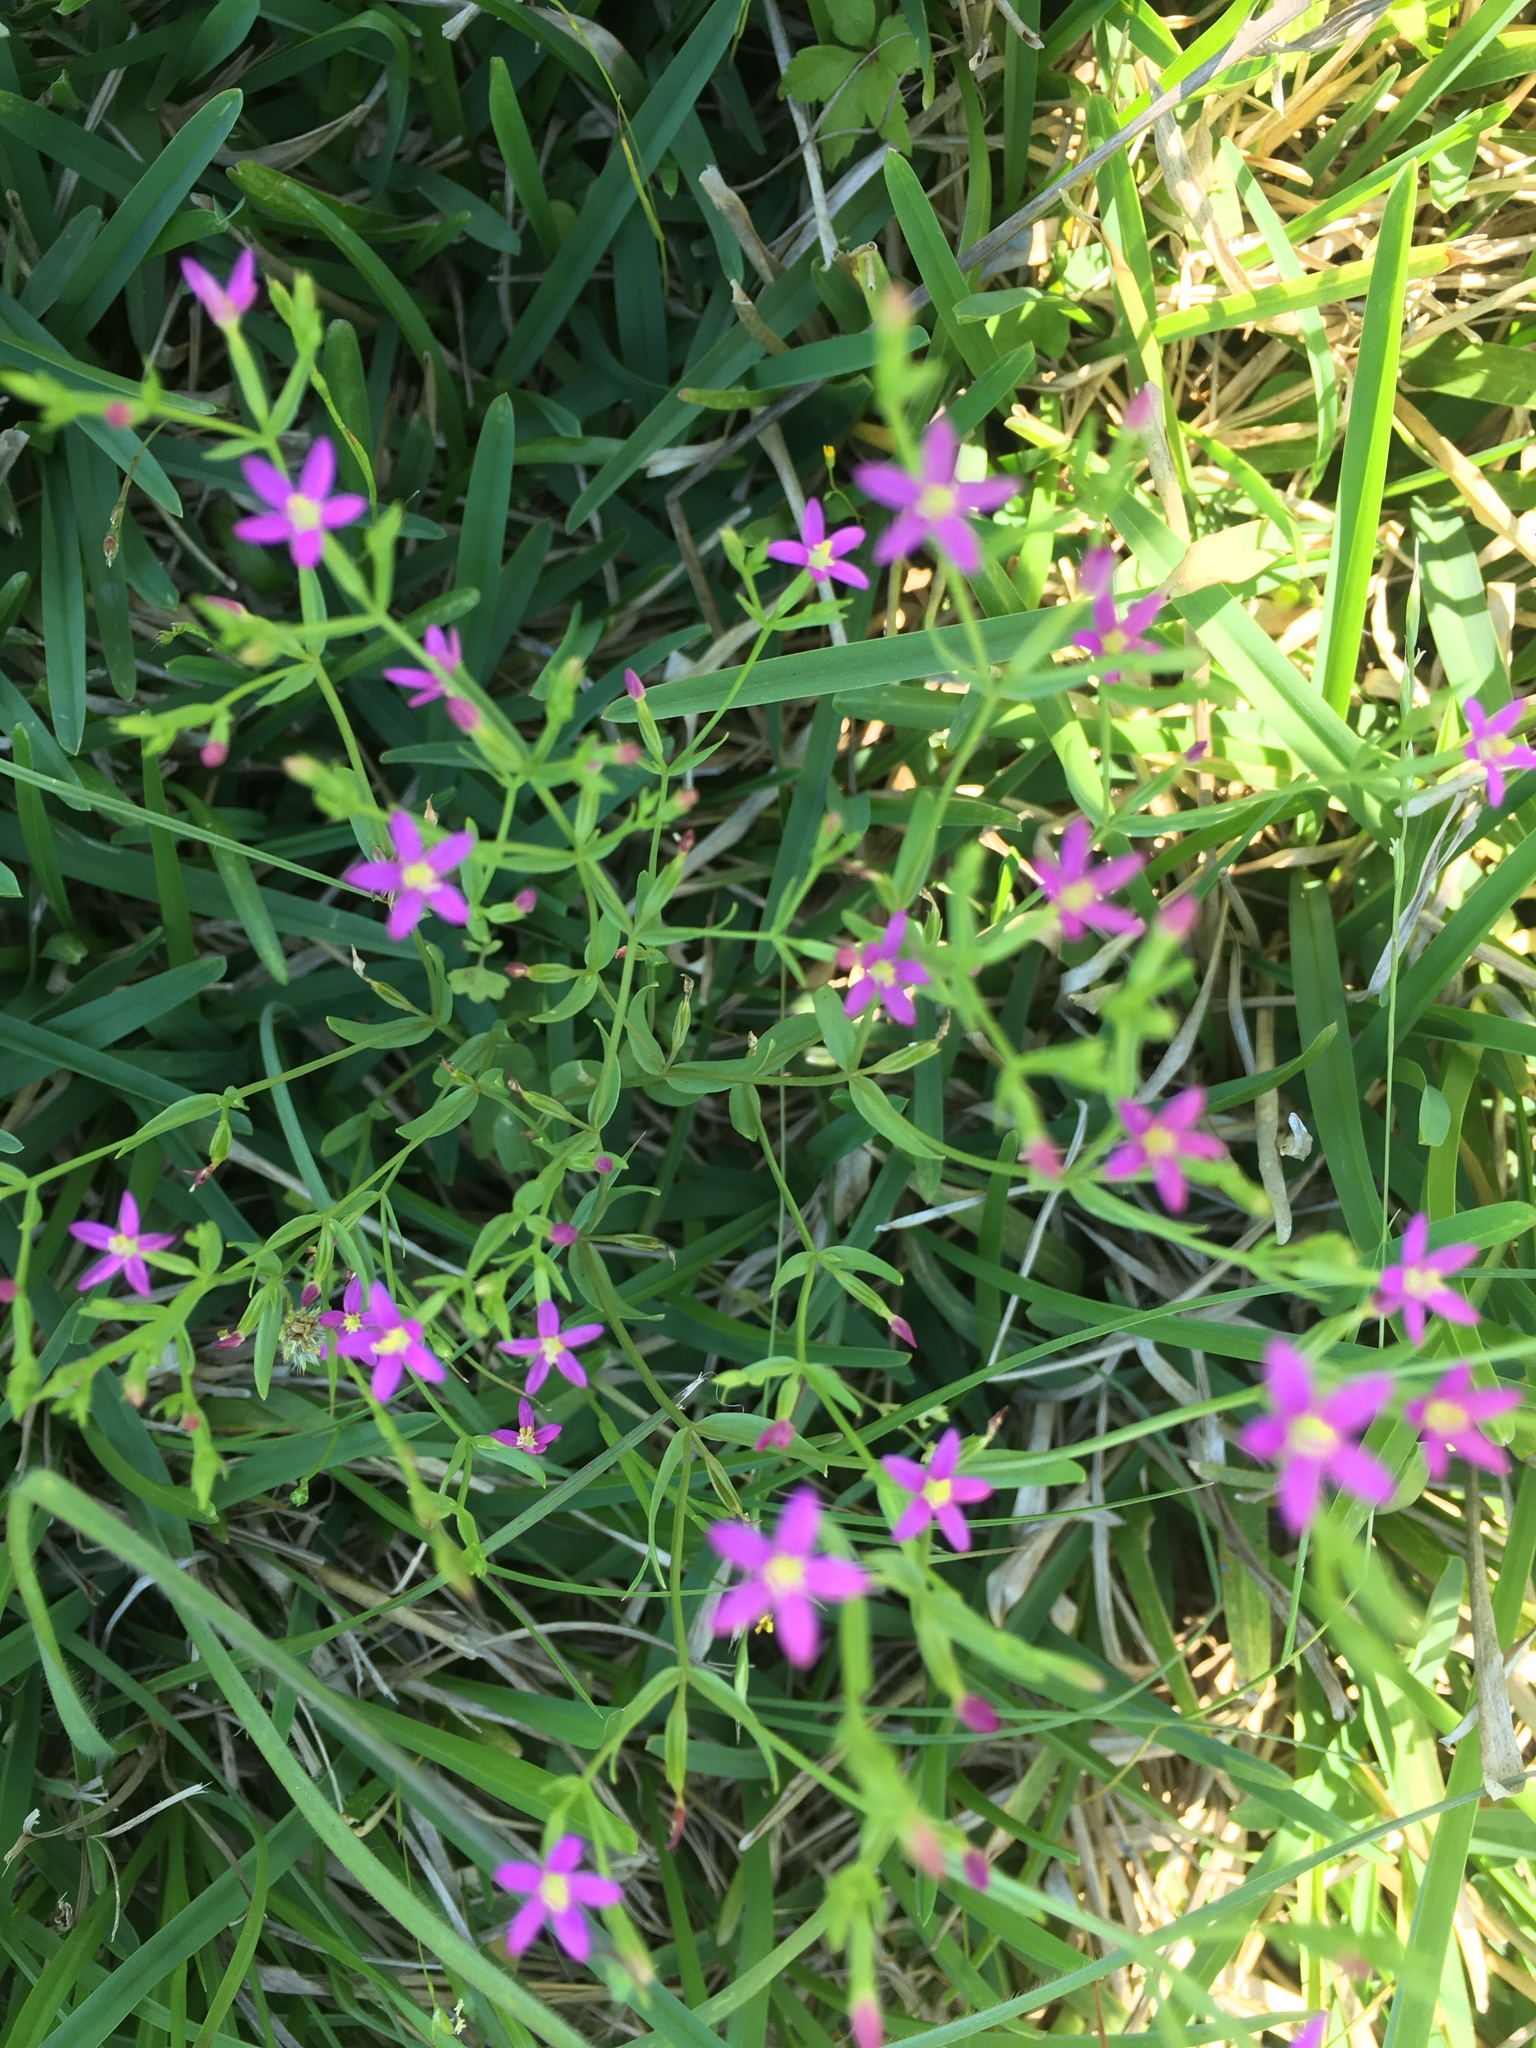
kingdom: Plantae
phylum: Tracheophyta
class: Magnoliopsida
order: Gentianales
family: Gentianaceae
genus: Centaurium
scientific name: Centaurium pulchellum
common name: Lesser centaury
